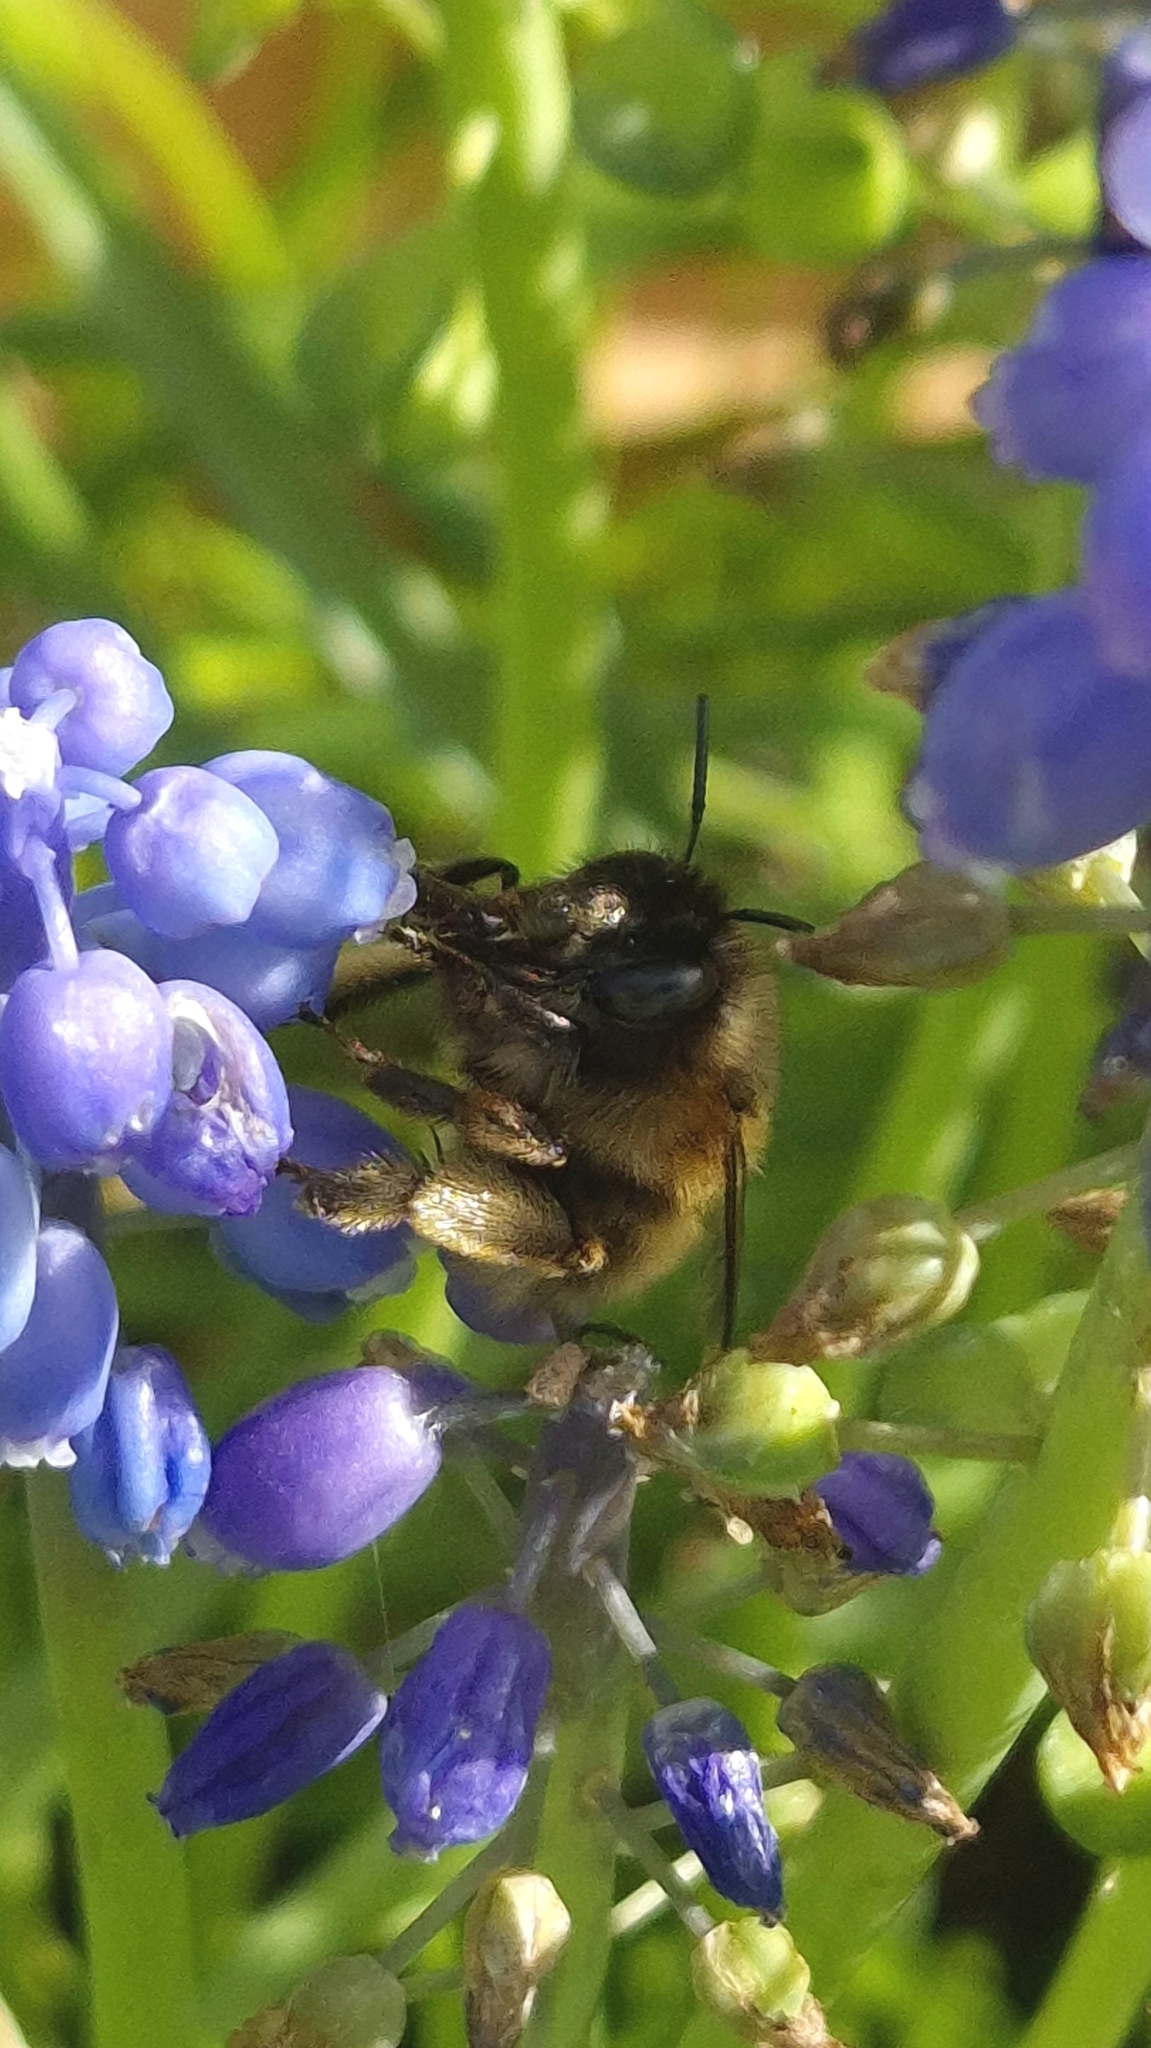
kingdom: Animalia
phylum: Arthropoda
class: Insecta
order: Hymenoptera
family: Apidae
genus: Anthophora
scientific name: Anthophora plumipes
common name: Hairy-footed flower bee
